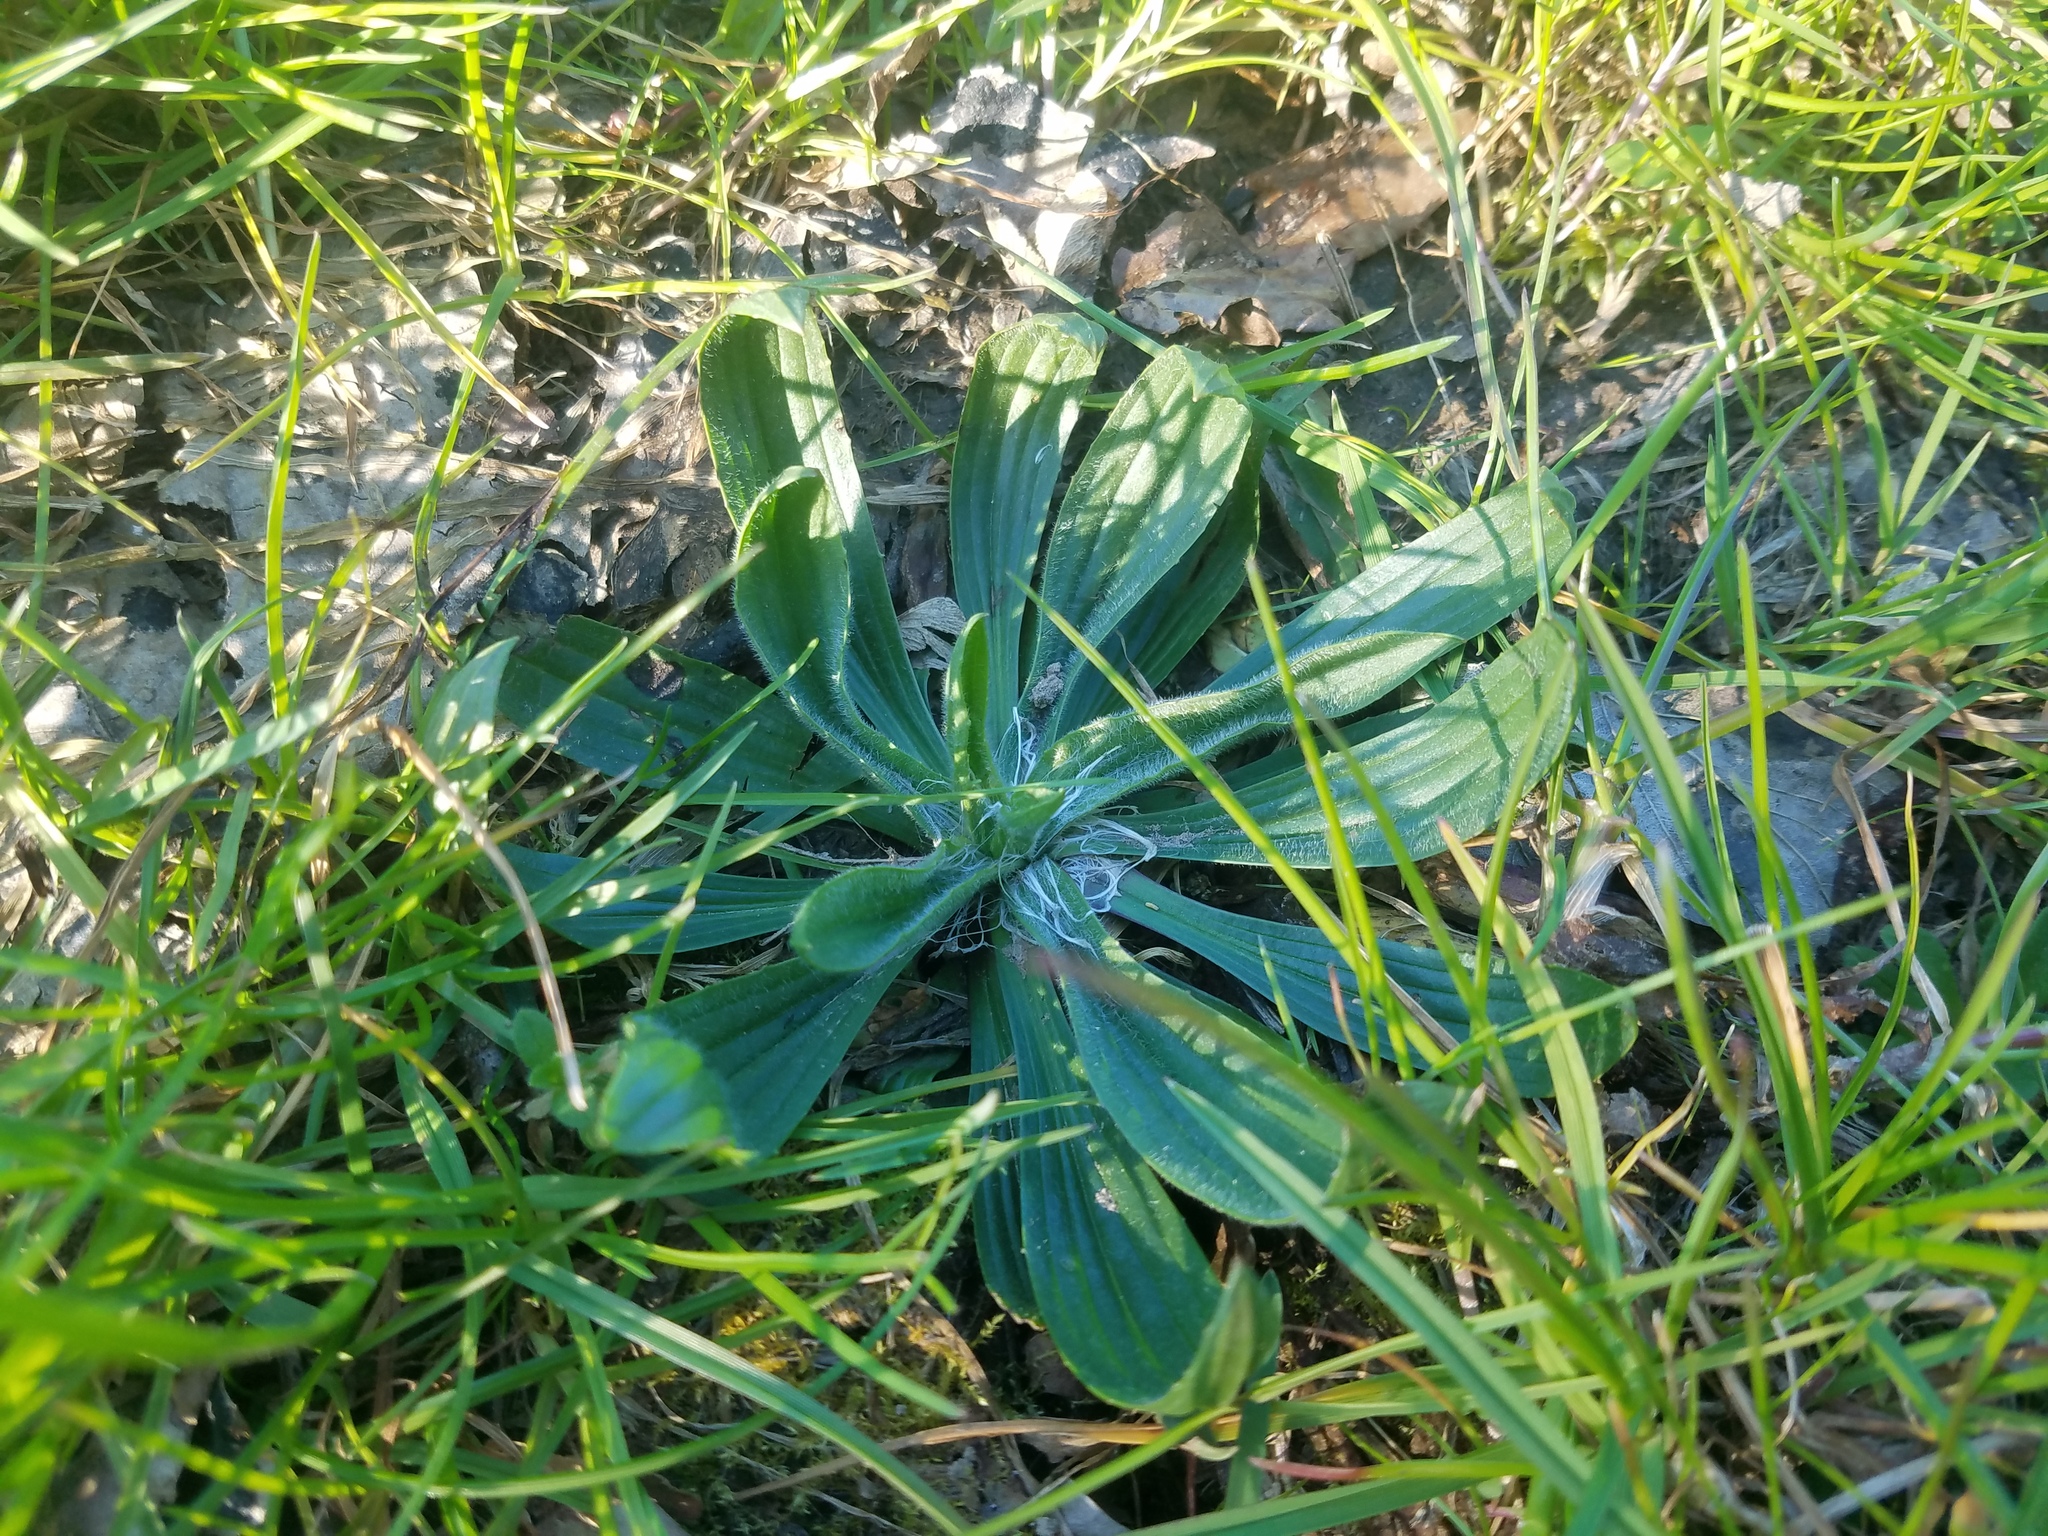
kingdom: Plantae
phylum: Tracheophyta
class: Magnoliopsida
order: Lamiales
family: Plantaginaceae
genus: Plantago
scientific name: Plantago lanceolata
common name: Ribwort plantain
